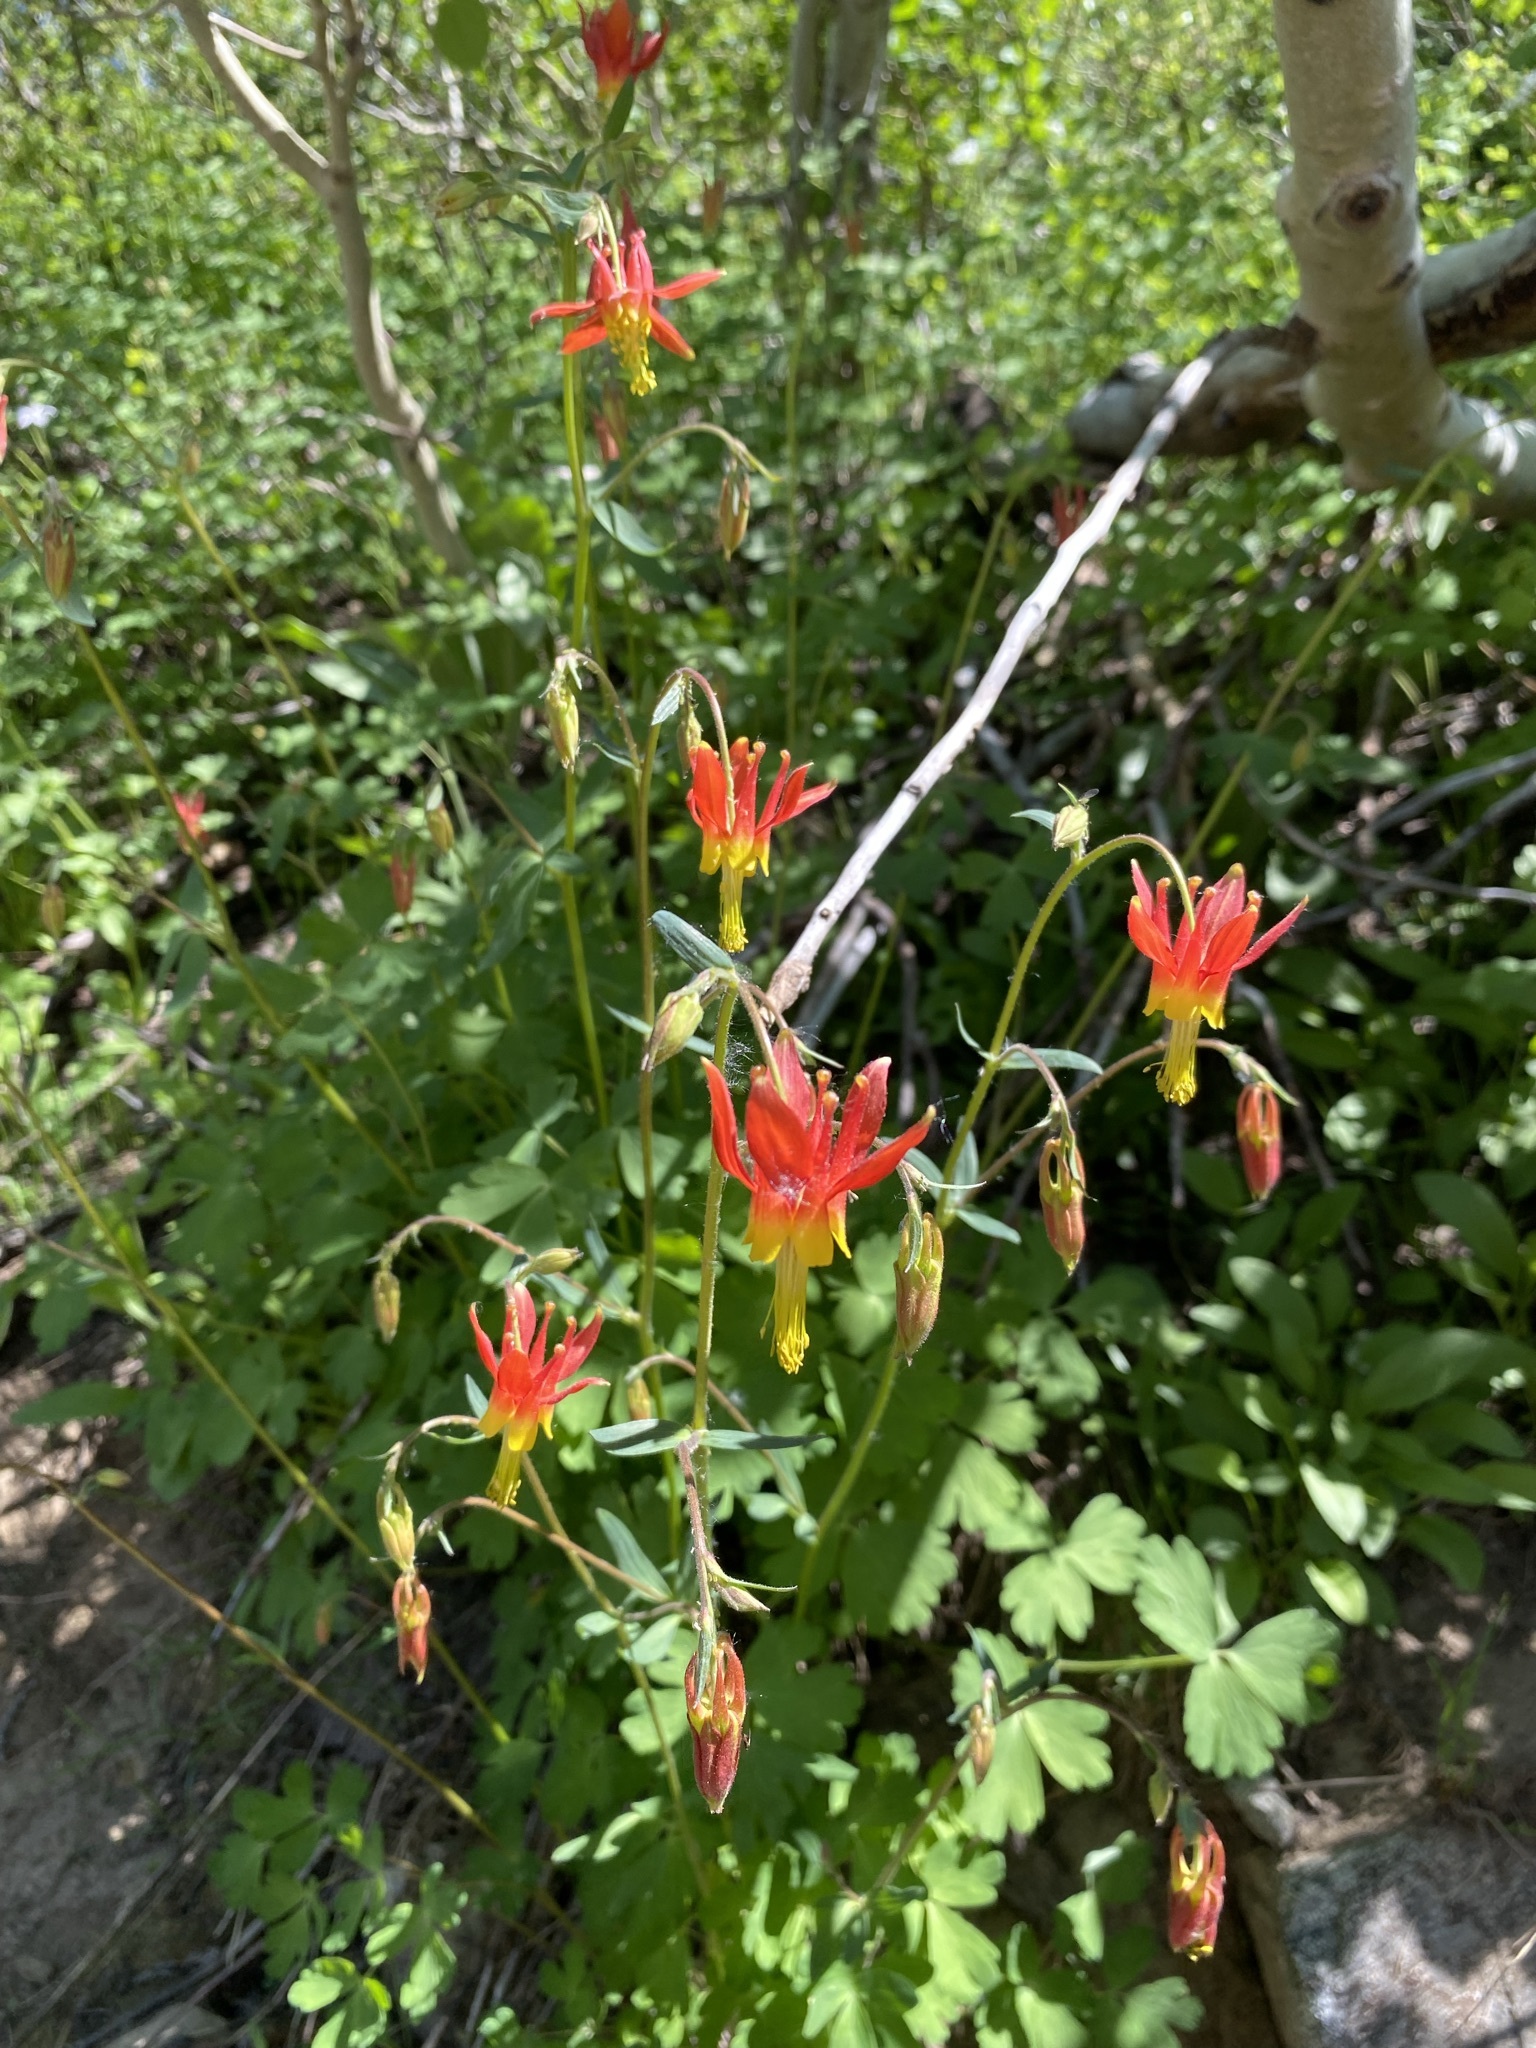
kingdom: Plantae
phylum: Tracheophyta
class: Magnoliopsida
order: Ranunculales
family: Ranunculaceae
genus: Aquilegia
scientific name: Aquilegia formosa
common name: Sitka columbine
